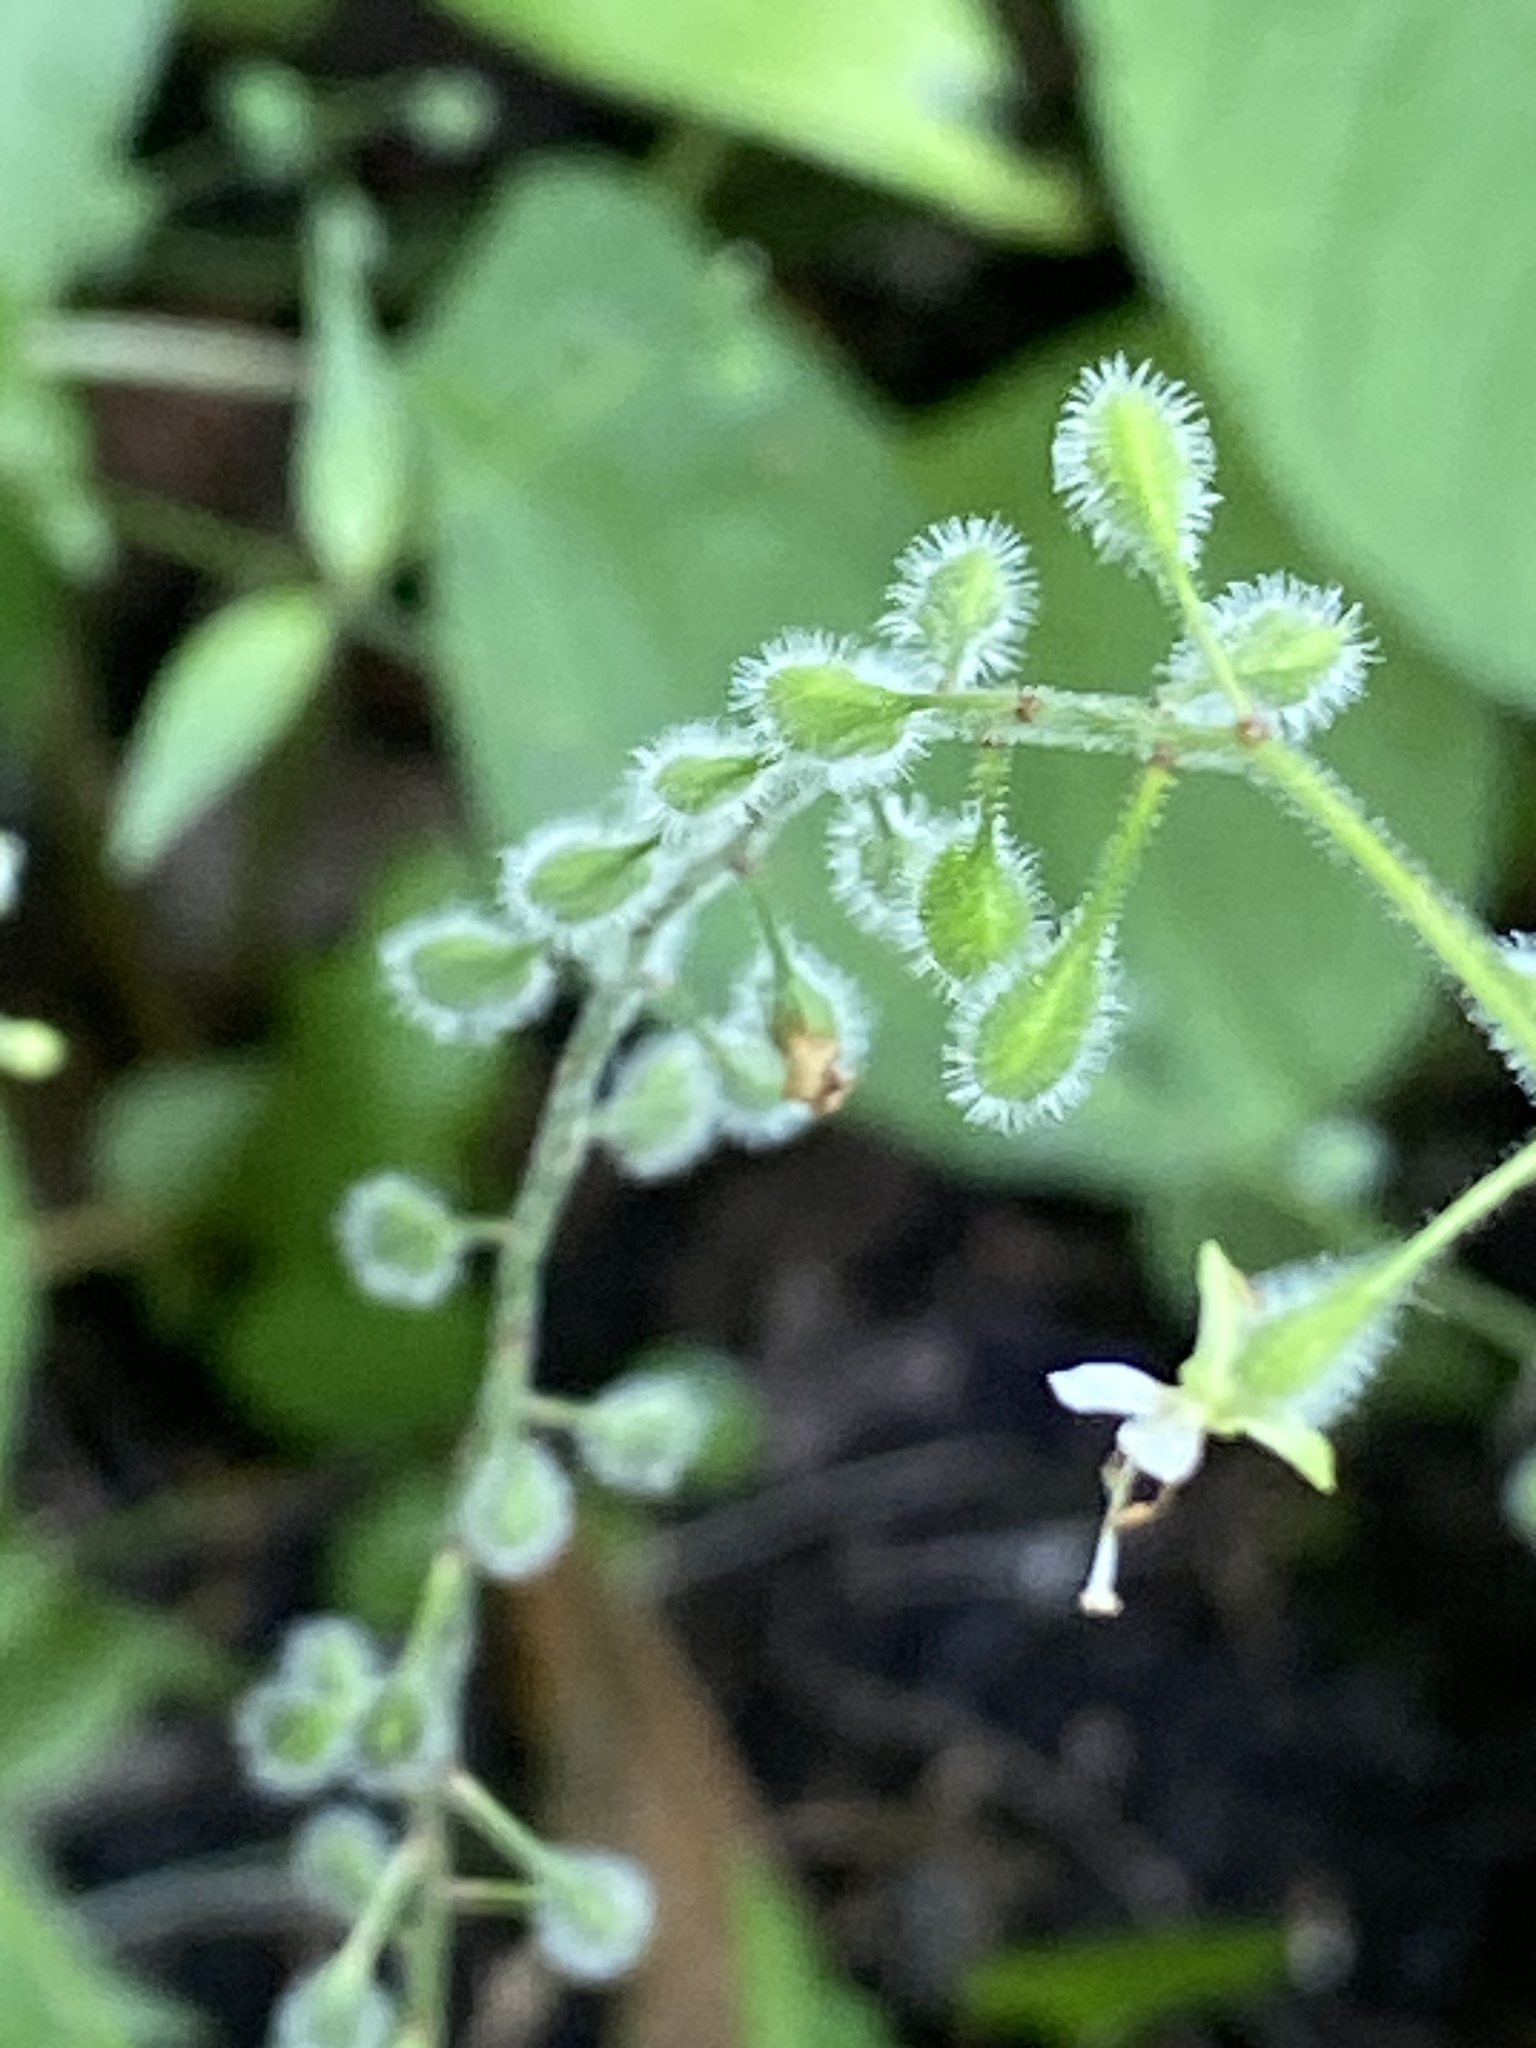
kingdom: Plantae
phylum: Tracheophyta
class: Magnoliopsida
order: Myrtales
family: Onagraceae
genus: Circaea
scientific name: Circaea canadensis
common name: Broad-leaved enchanter's nightshade
